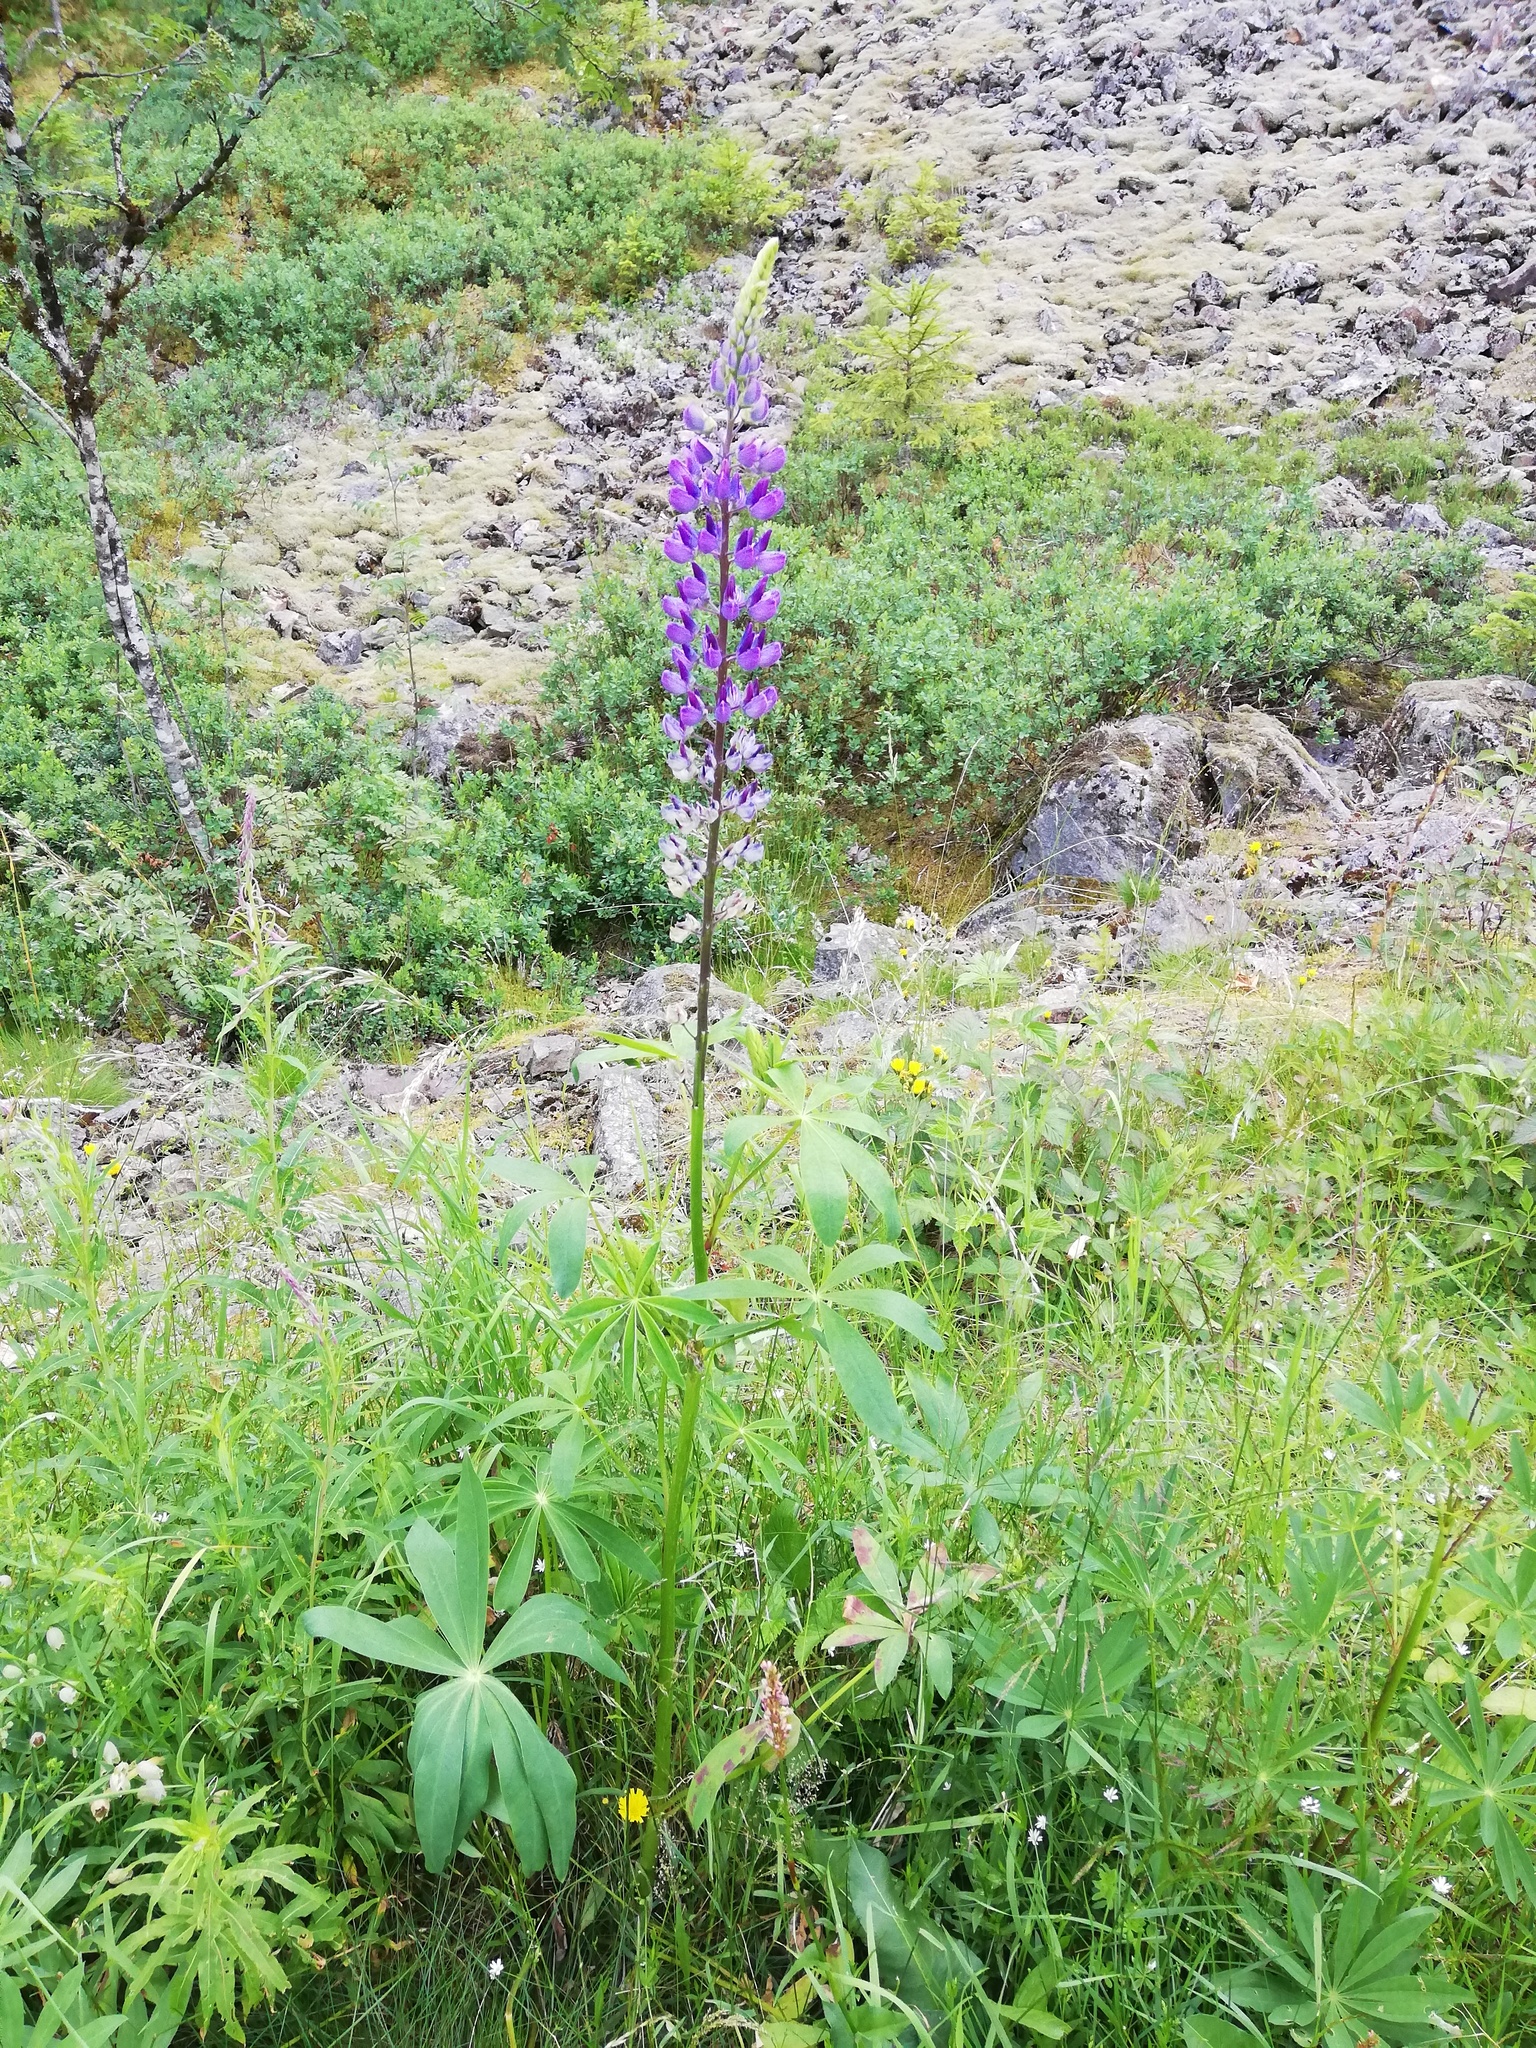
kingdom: Plantae
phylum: Tracheophyta
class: Magnoliopsida
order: Fabales
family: Fabaceae
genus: Lupinus
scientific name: Lupinus polyphyllus
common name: Garden lupin
